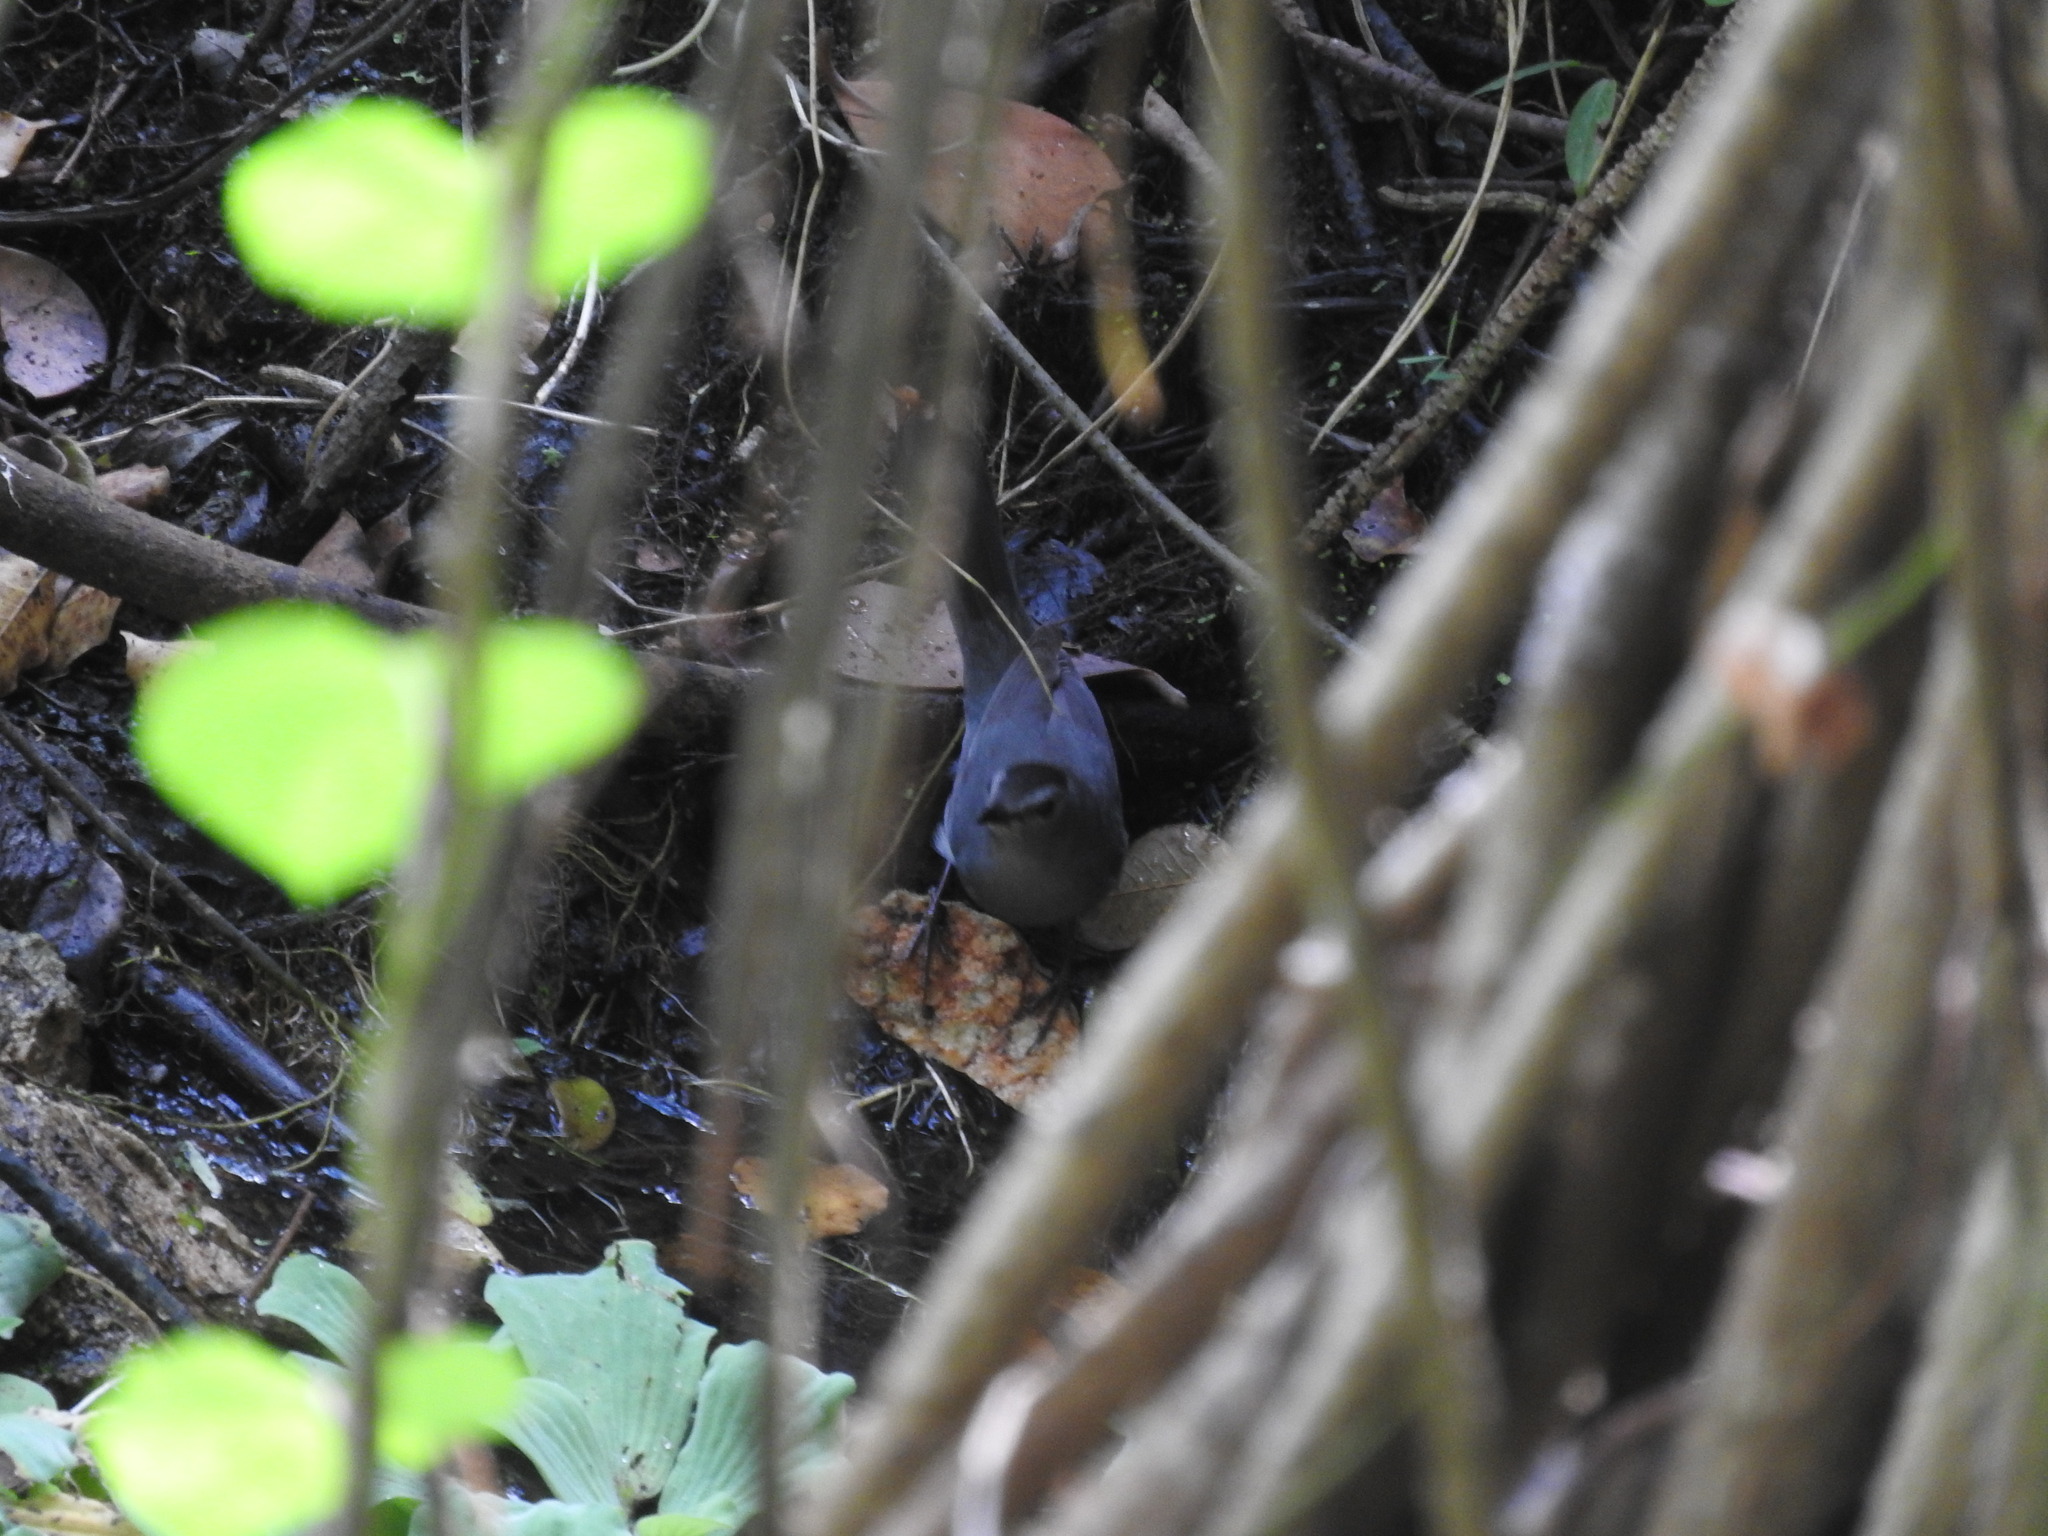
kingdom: Animalia
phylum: Chordata
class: Aves
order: Passeriformes
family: Mimidae
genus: Dumetella
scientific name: Dumetella carolinensis
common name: Gray catbird
